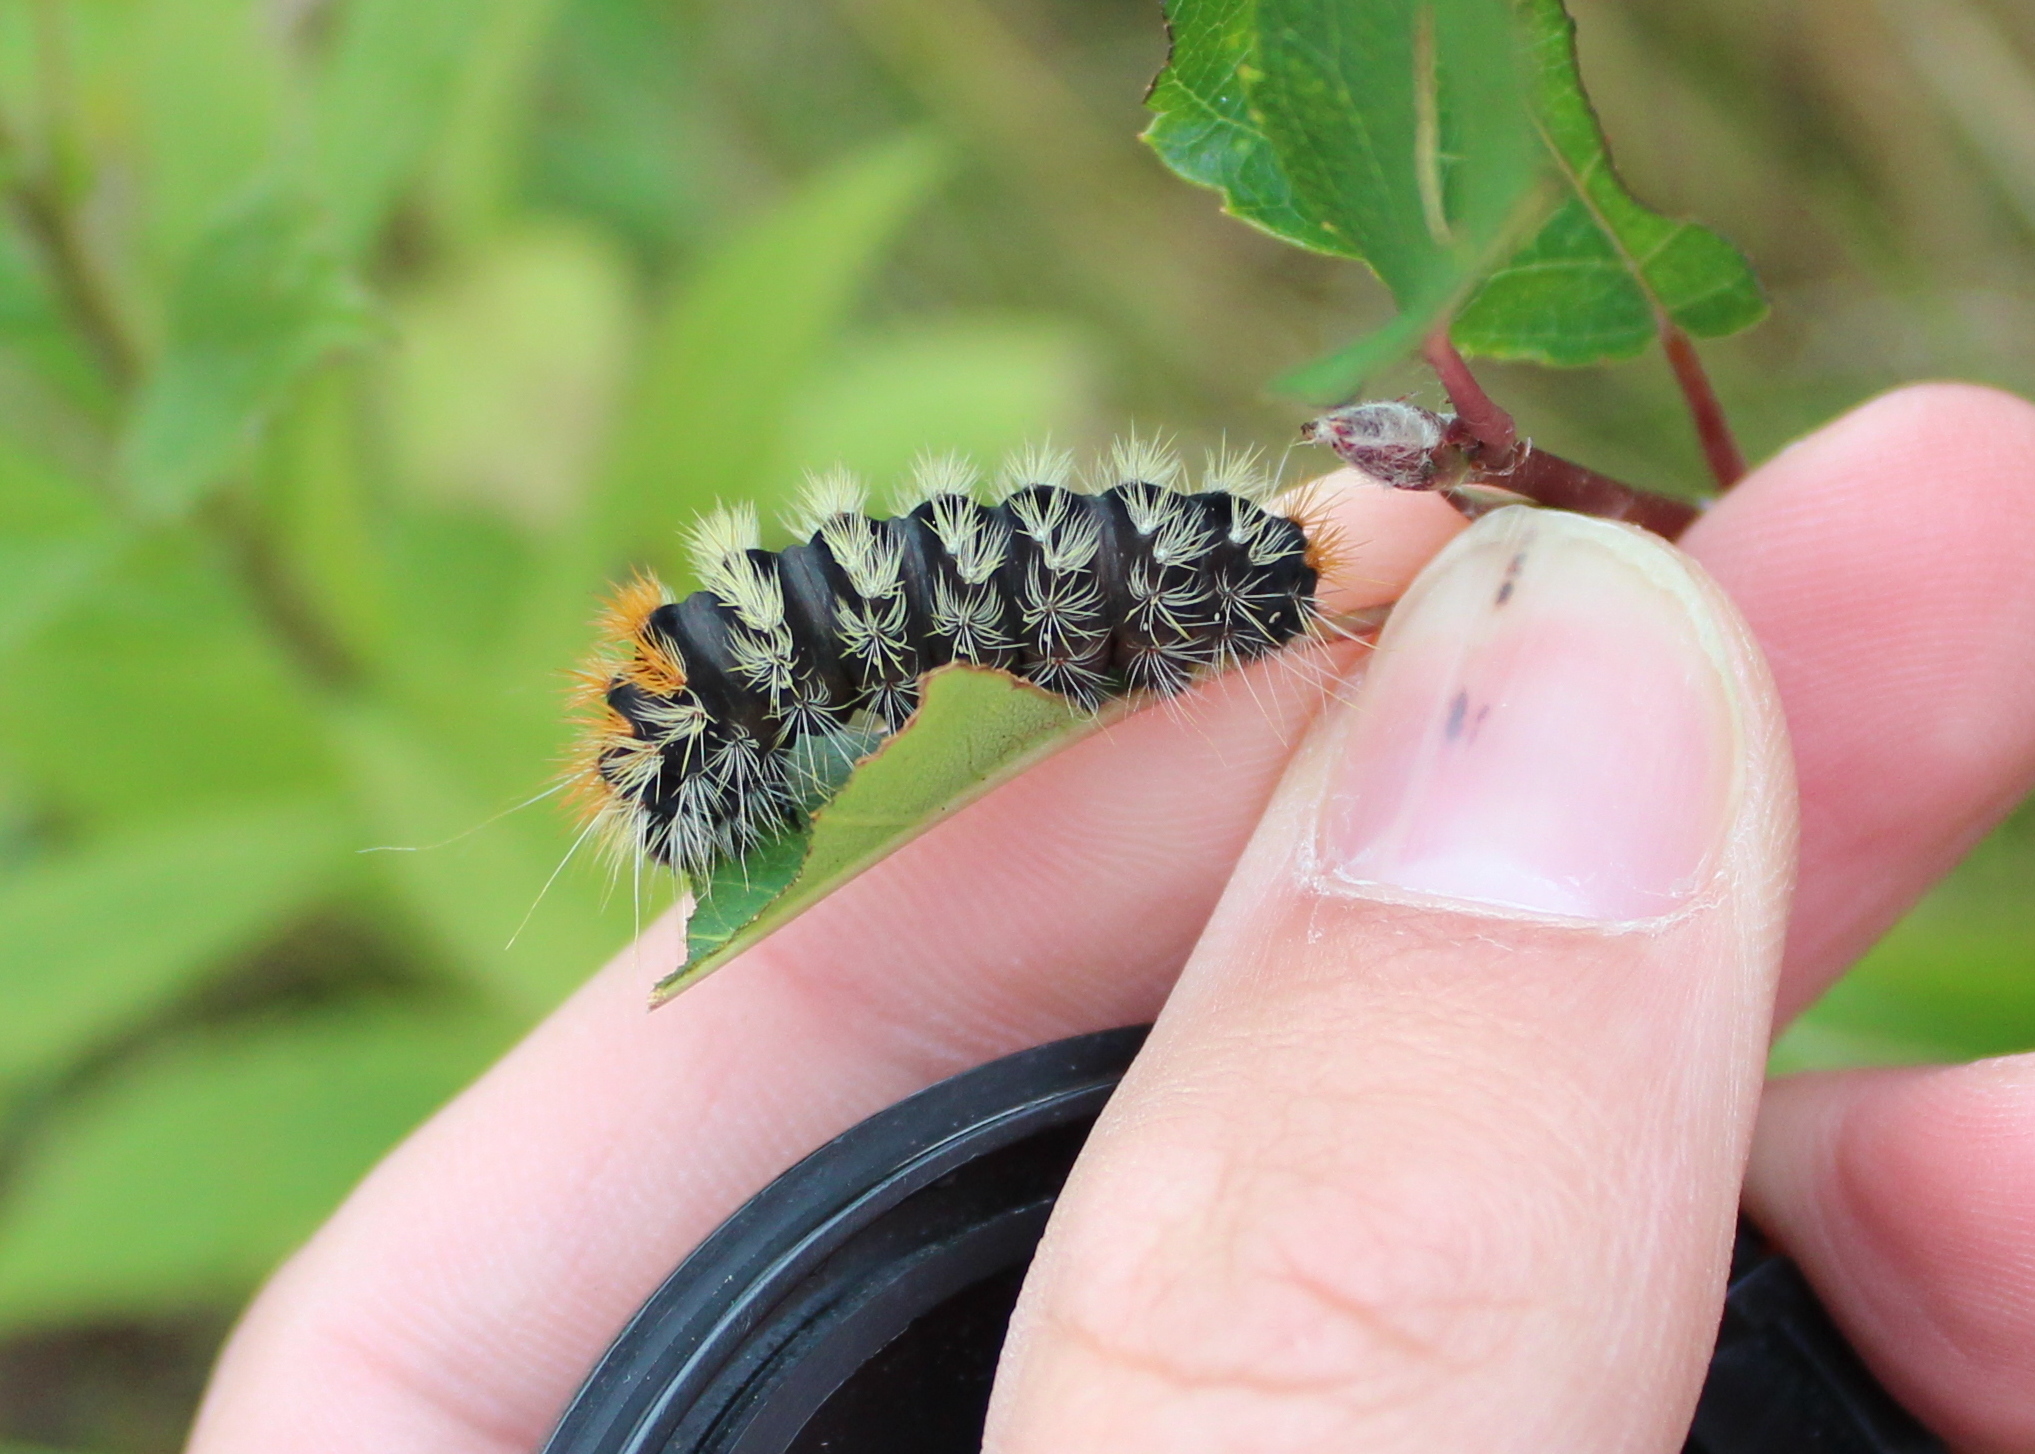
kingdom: Animalia
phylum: Arthropoda
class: Insecta
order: Lepidoptera
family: Noctuidae
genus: Acronicta
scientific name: Acronicta impressa
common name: Impressed dagger
